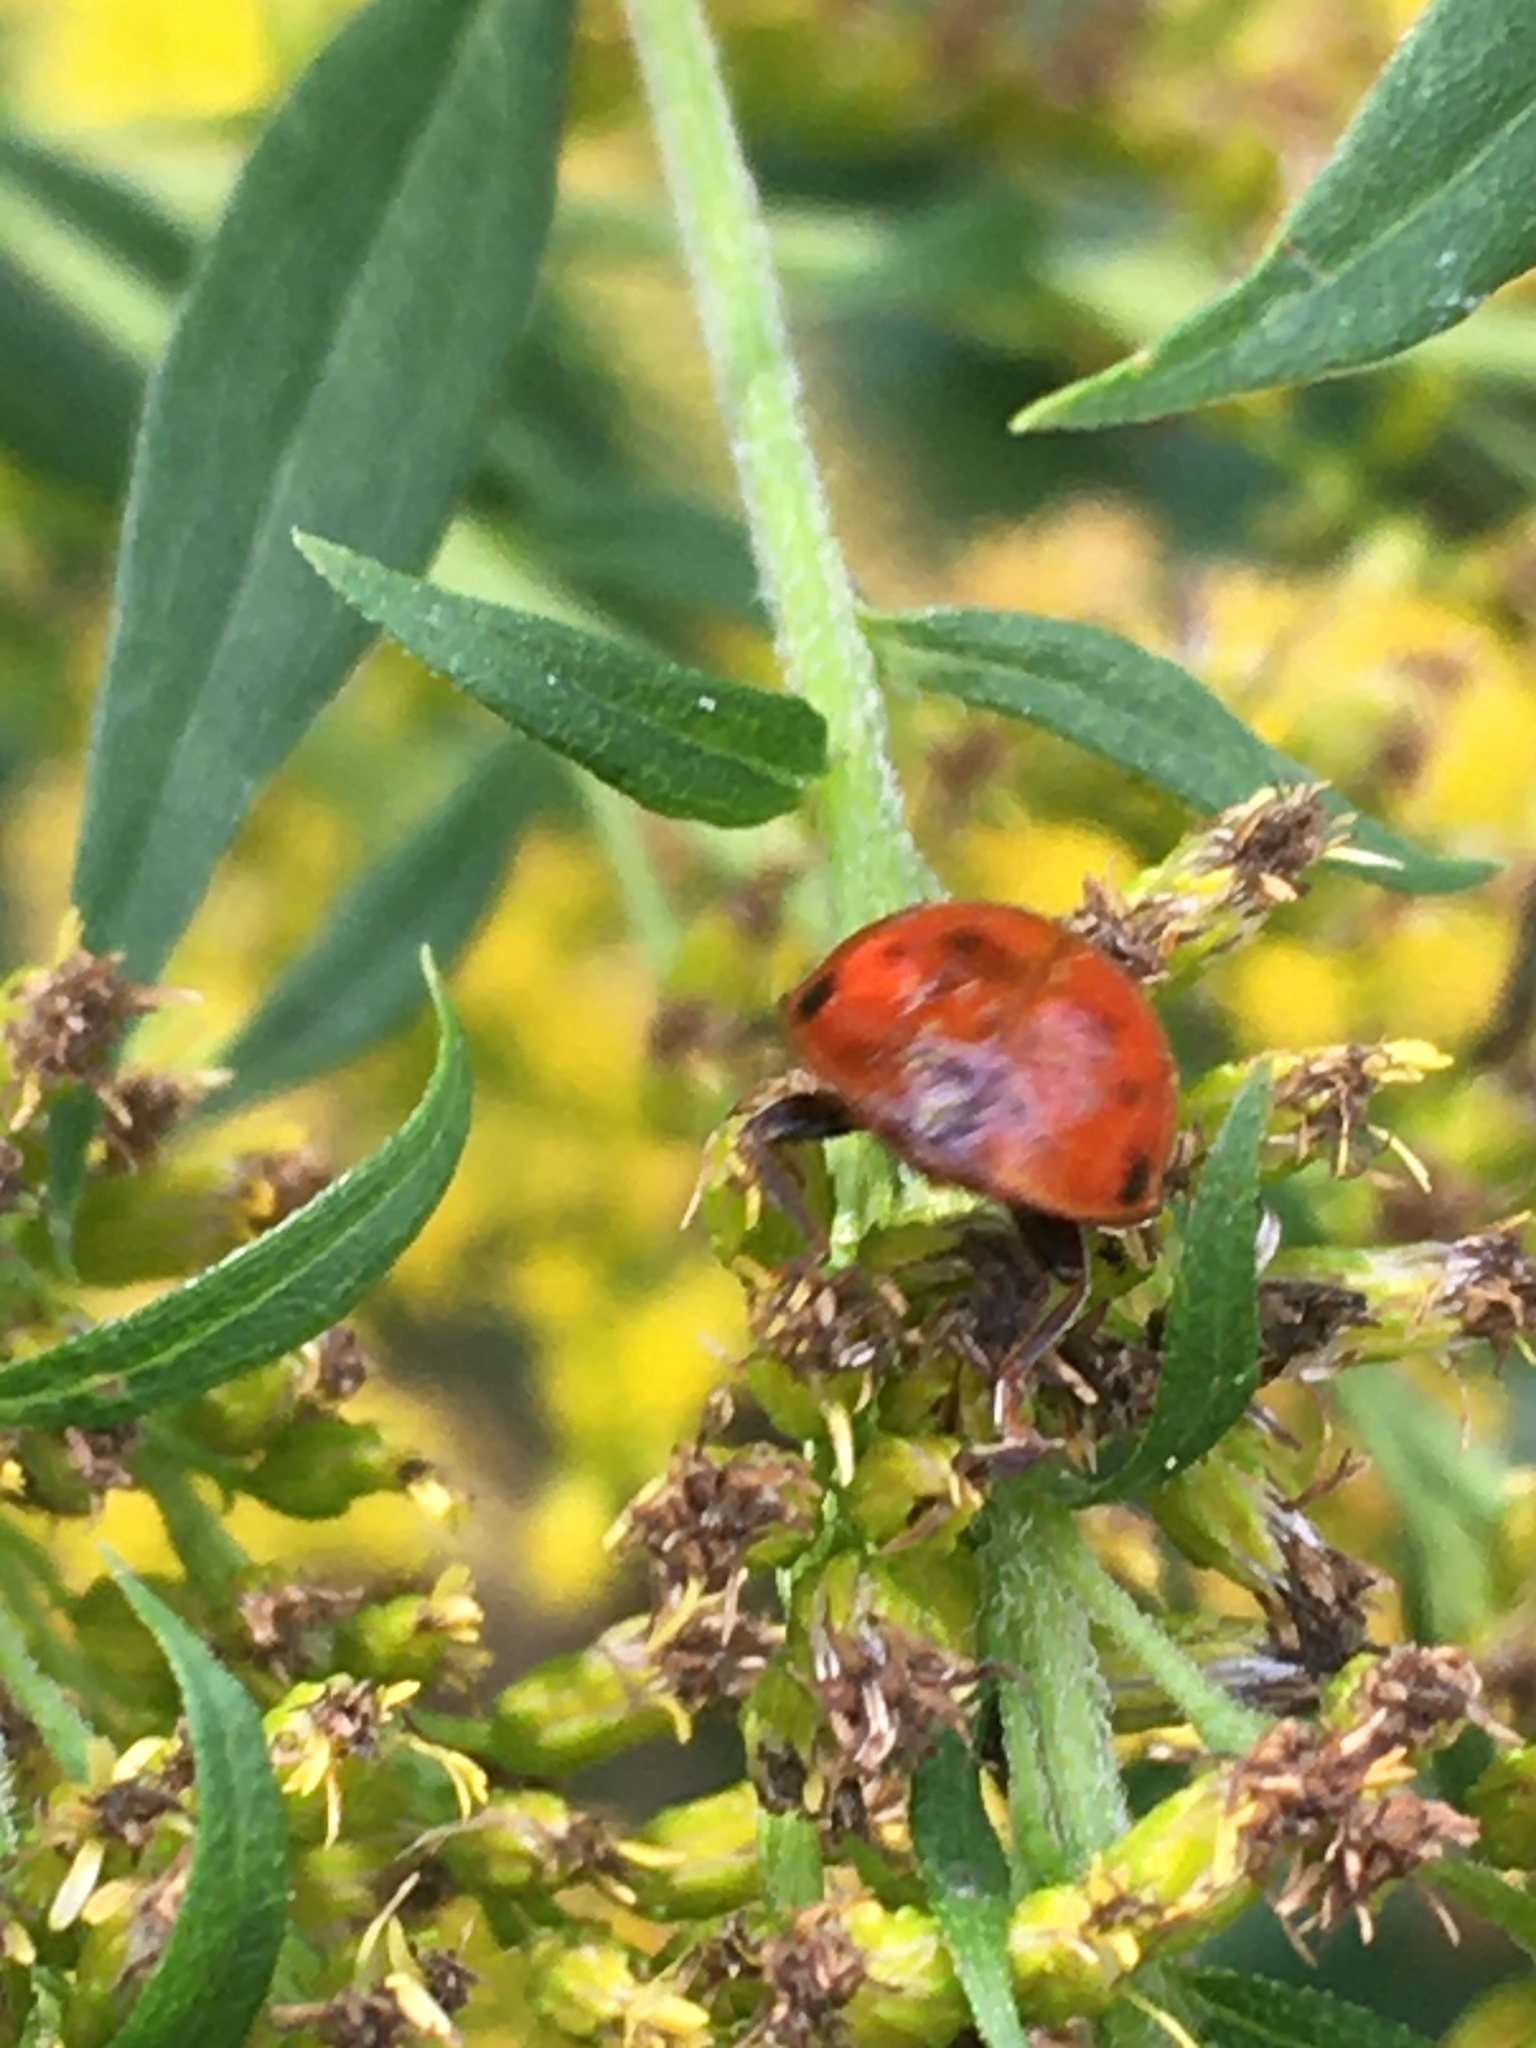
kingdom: Animalia
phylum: Arthropoda
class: Insecta
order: Coleoptera
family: Coccinellidae
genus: Harmonia
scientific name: Harmonia axyridis
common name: Harlequin ladybird
